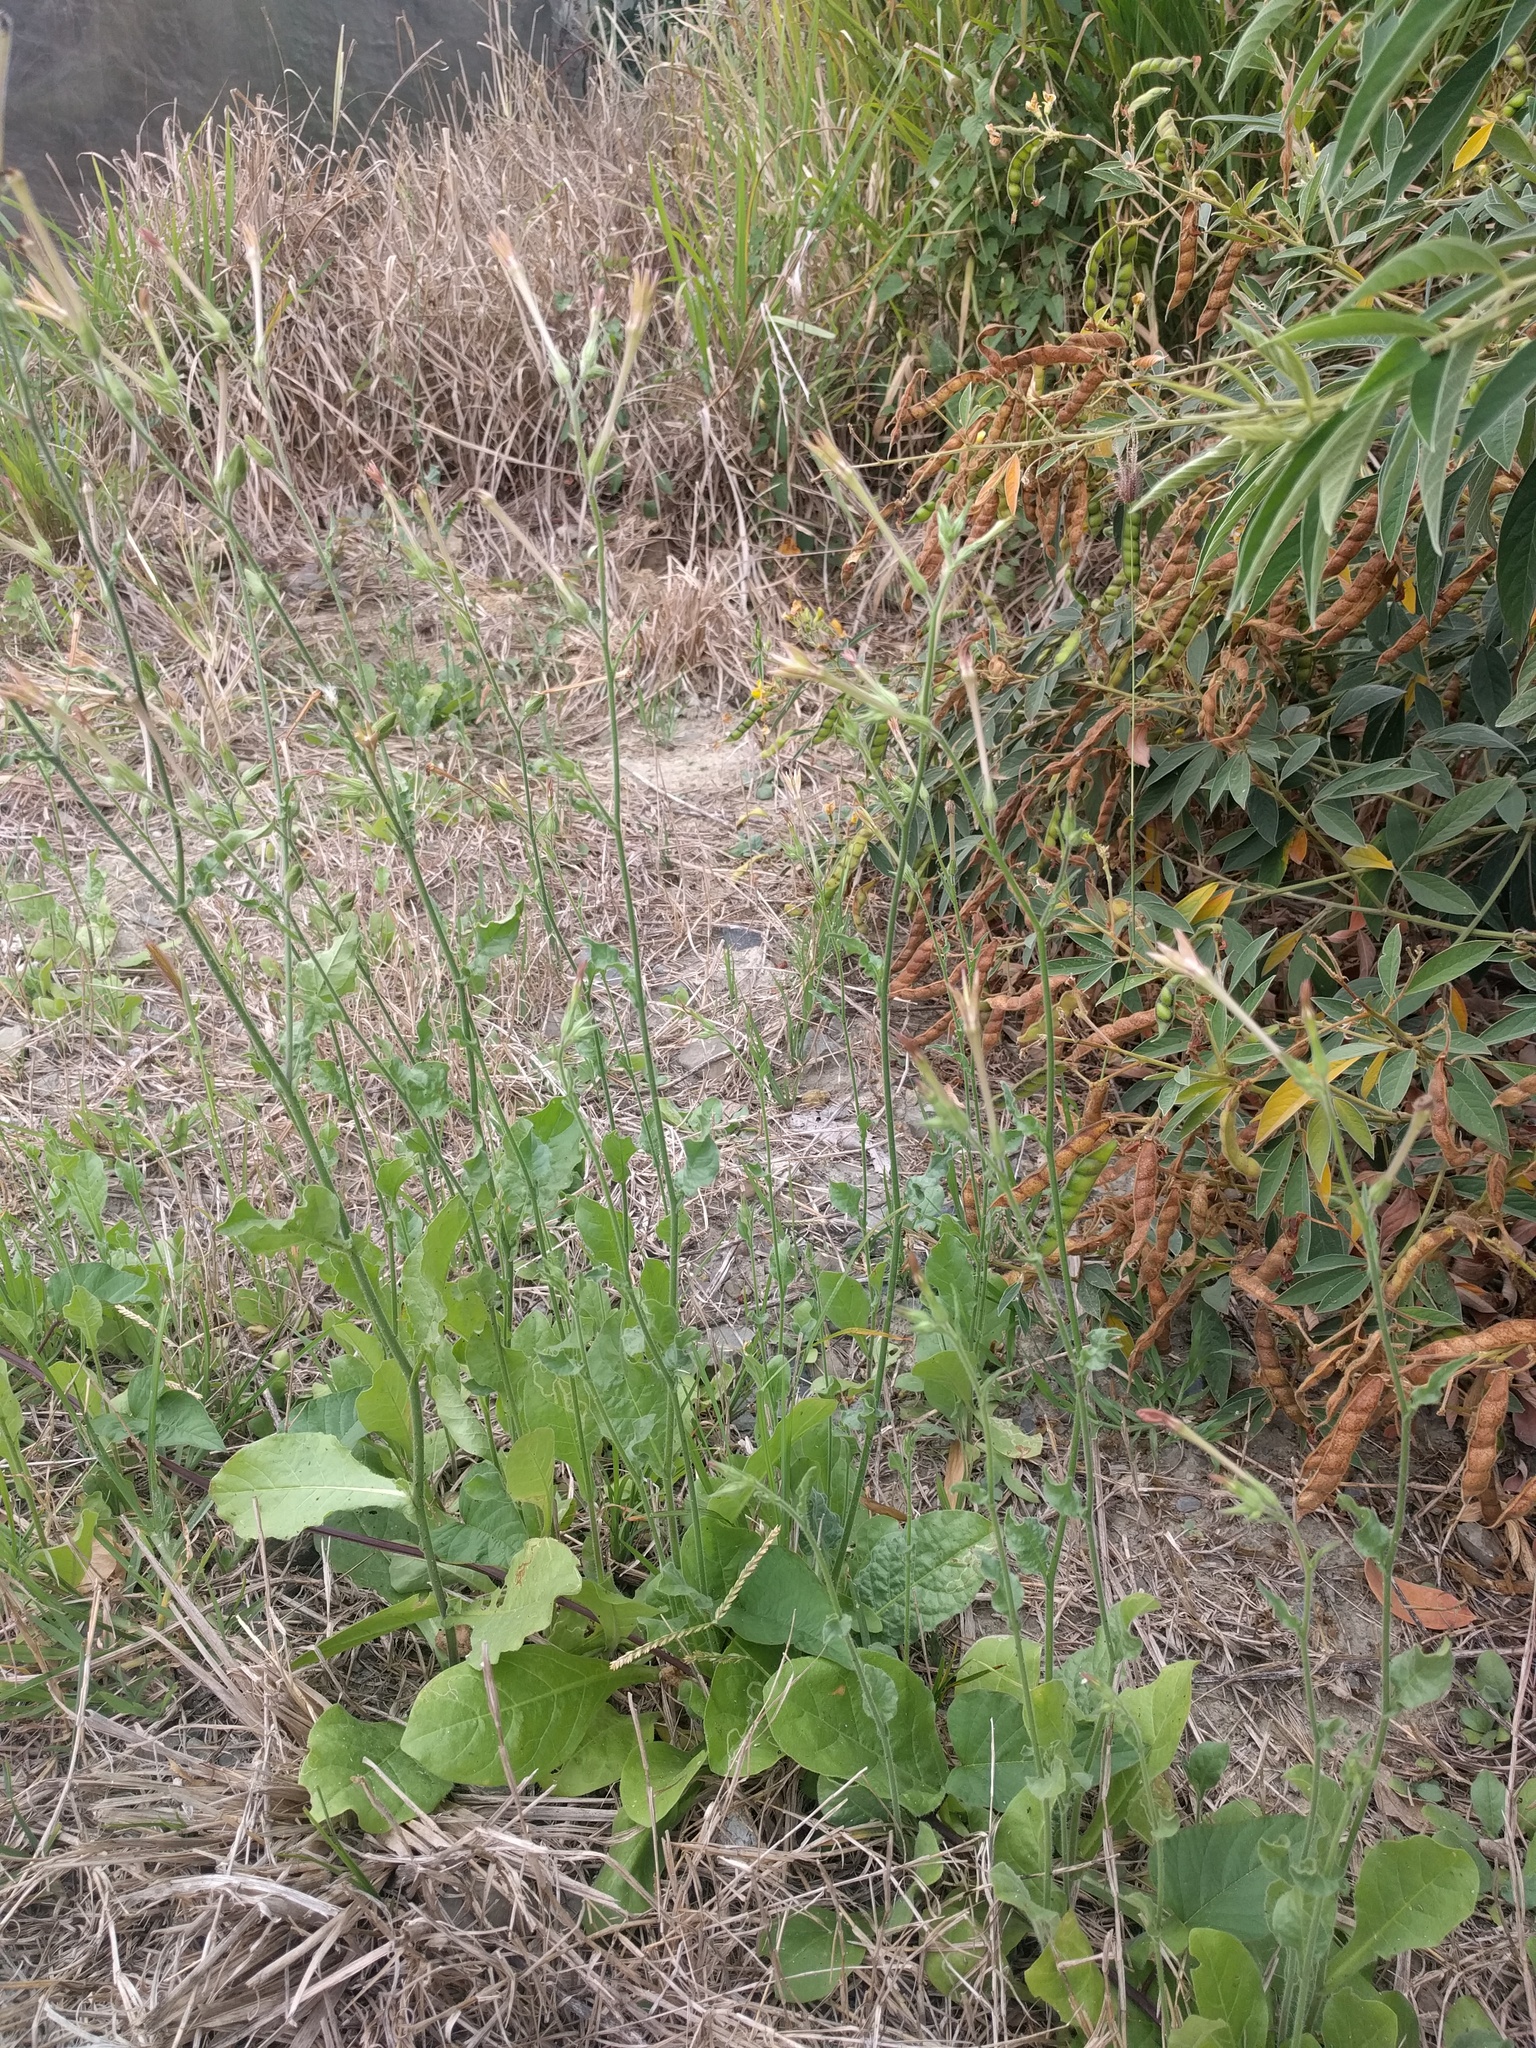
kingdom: Plantae
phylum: Tracheophyta
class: Magnoliopsida
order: Solanales
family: Solanaceae
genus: Nicotiana
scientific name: Nicotiana plumbaginifolia
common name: Tex-mex tobacco
